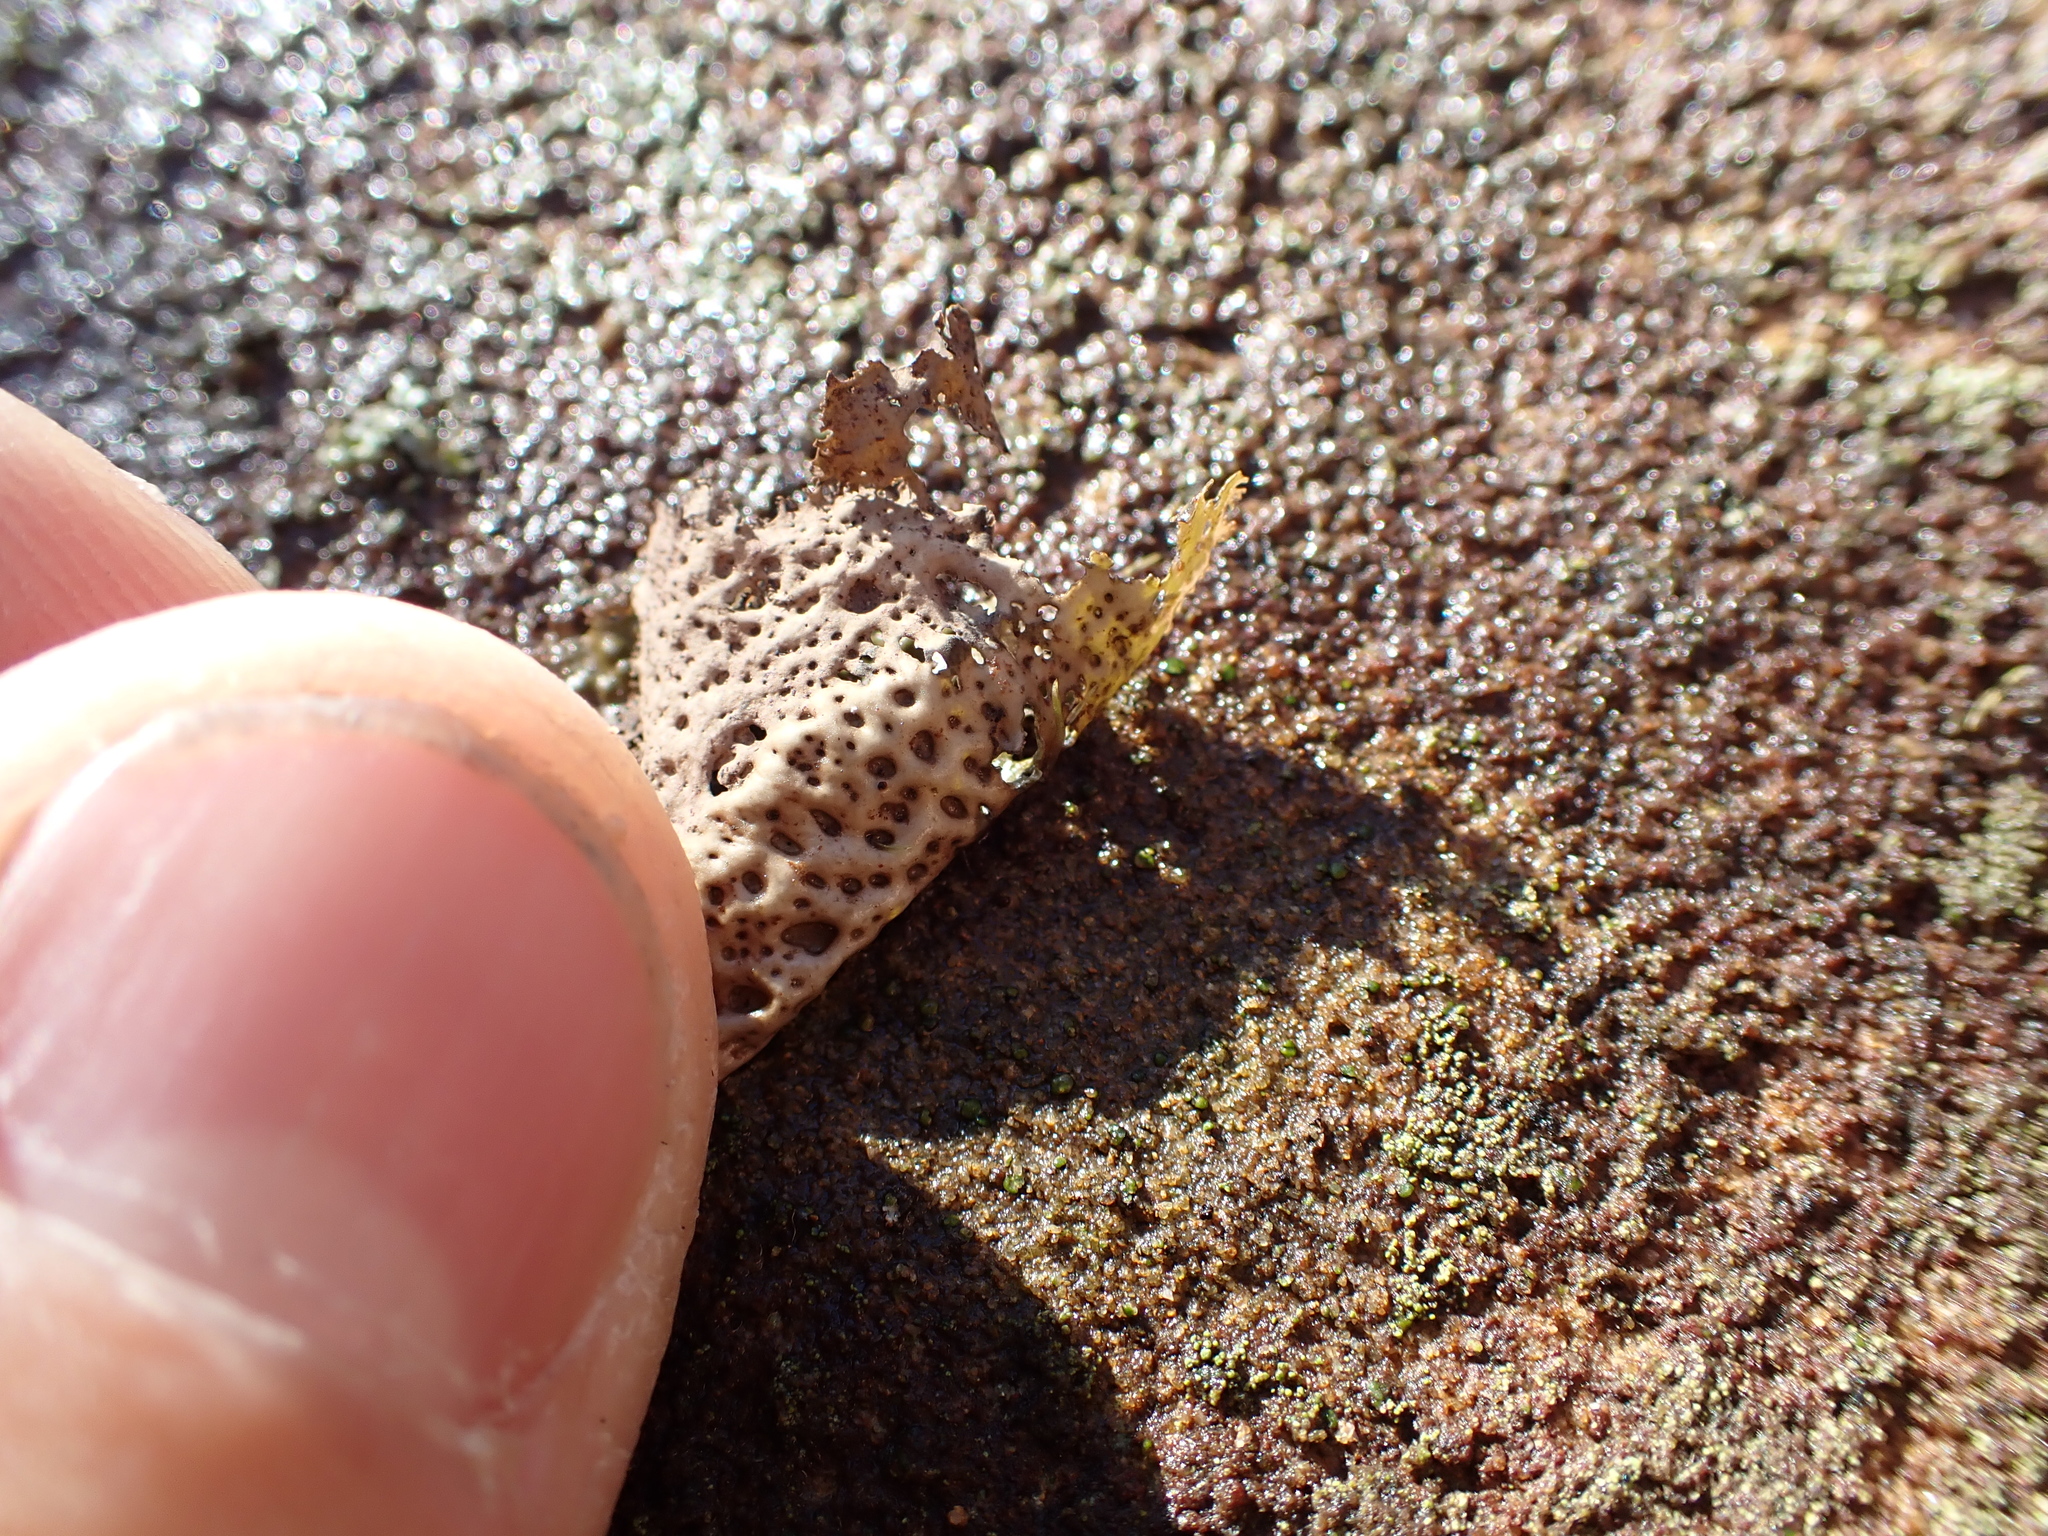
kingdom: Fungi
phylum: Ascomycota
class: Lecanoromycetes
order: Umbilicariales
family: Umbilicariaceae
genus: Lasallia
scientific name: Lasallia papulosa
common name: Common toadskin lichen
